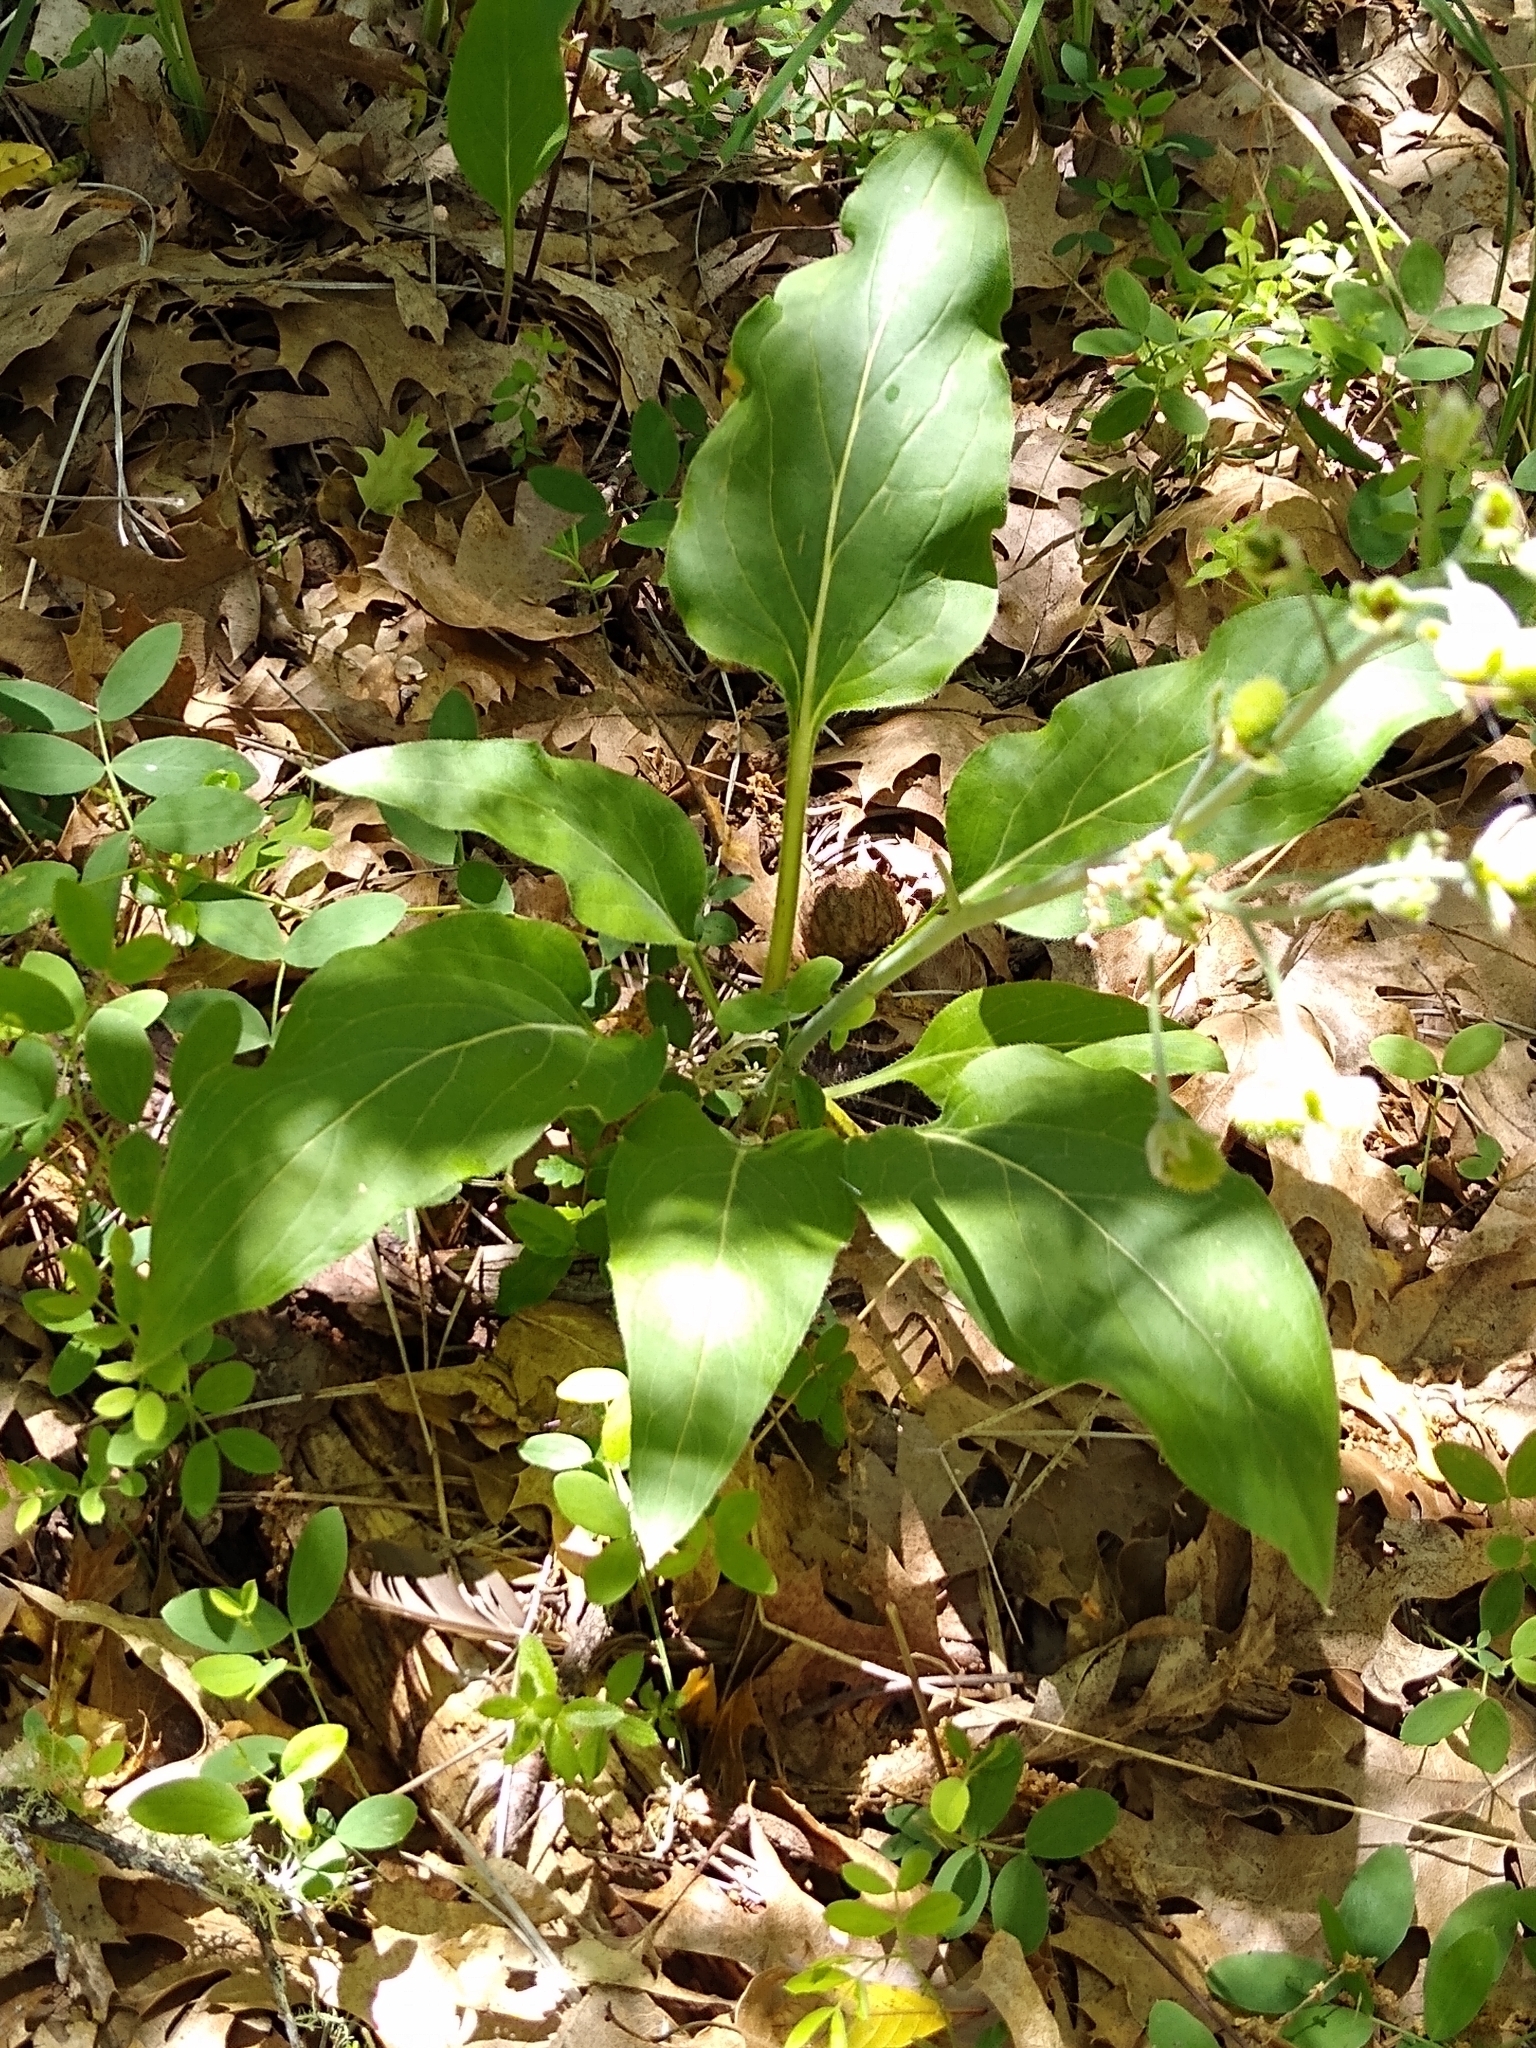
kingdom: Plantae
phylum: Tracheophyta
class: Magnoliopsida
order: Boraginales
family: Boraginaceae
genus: Adelinia
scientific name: Adelinia grande
